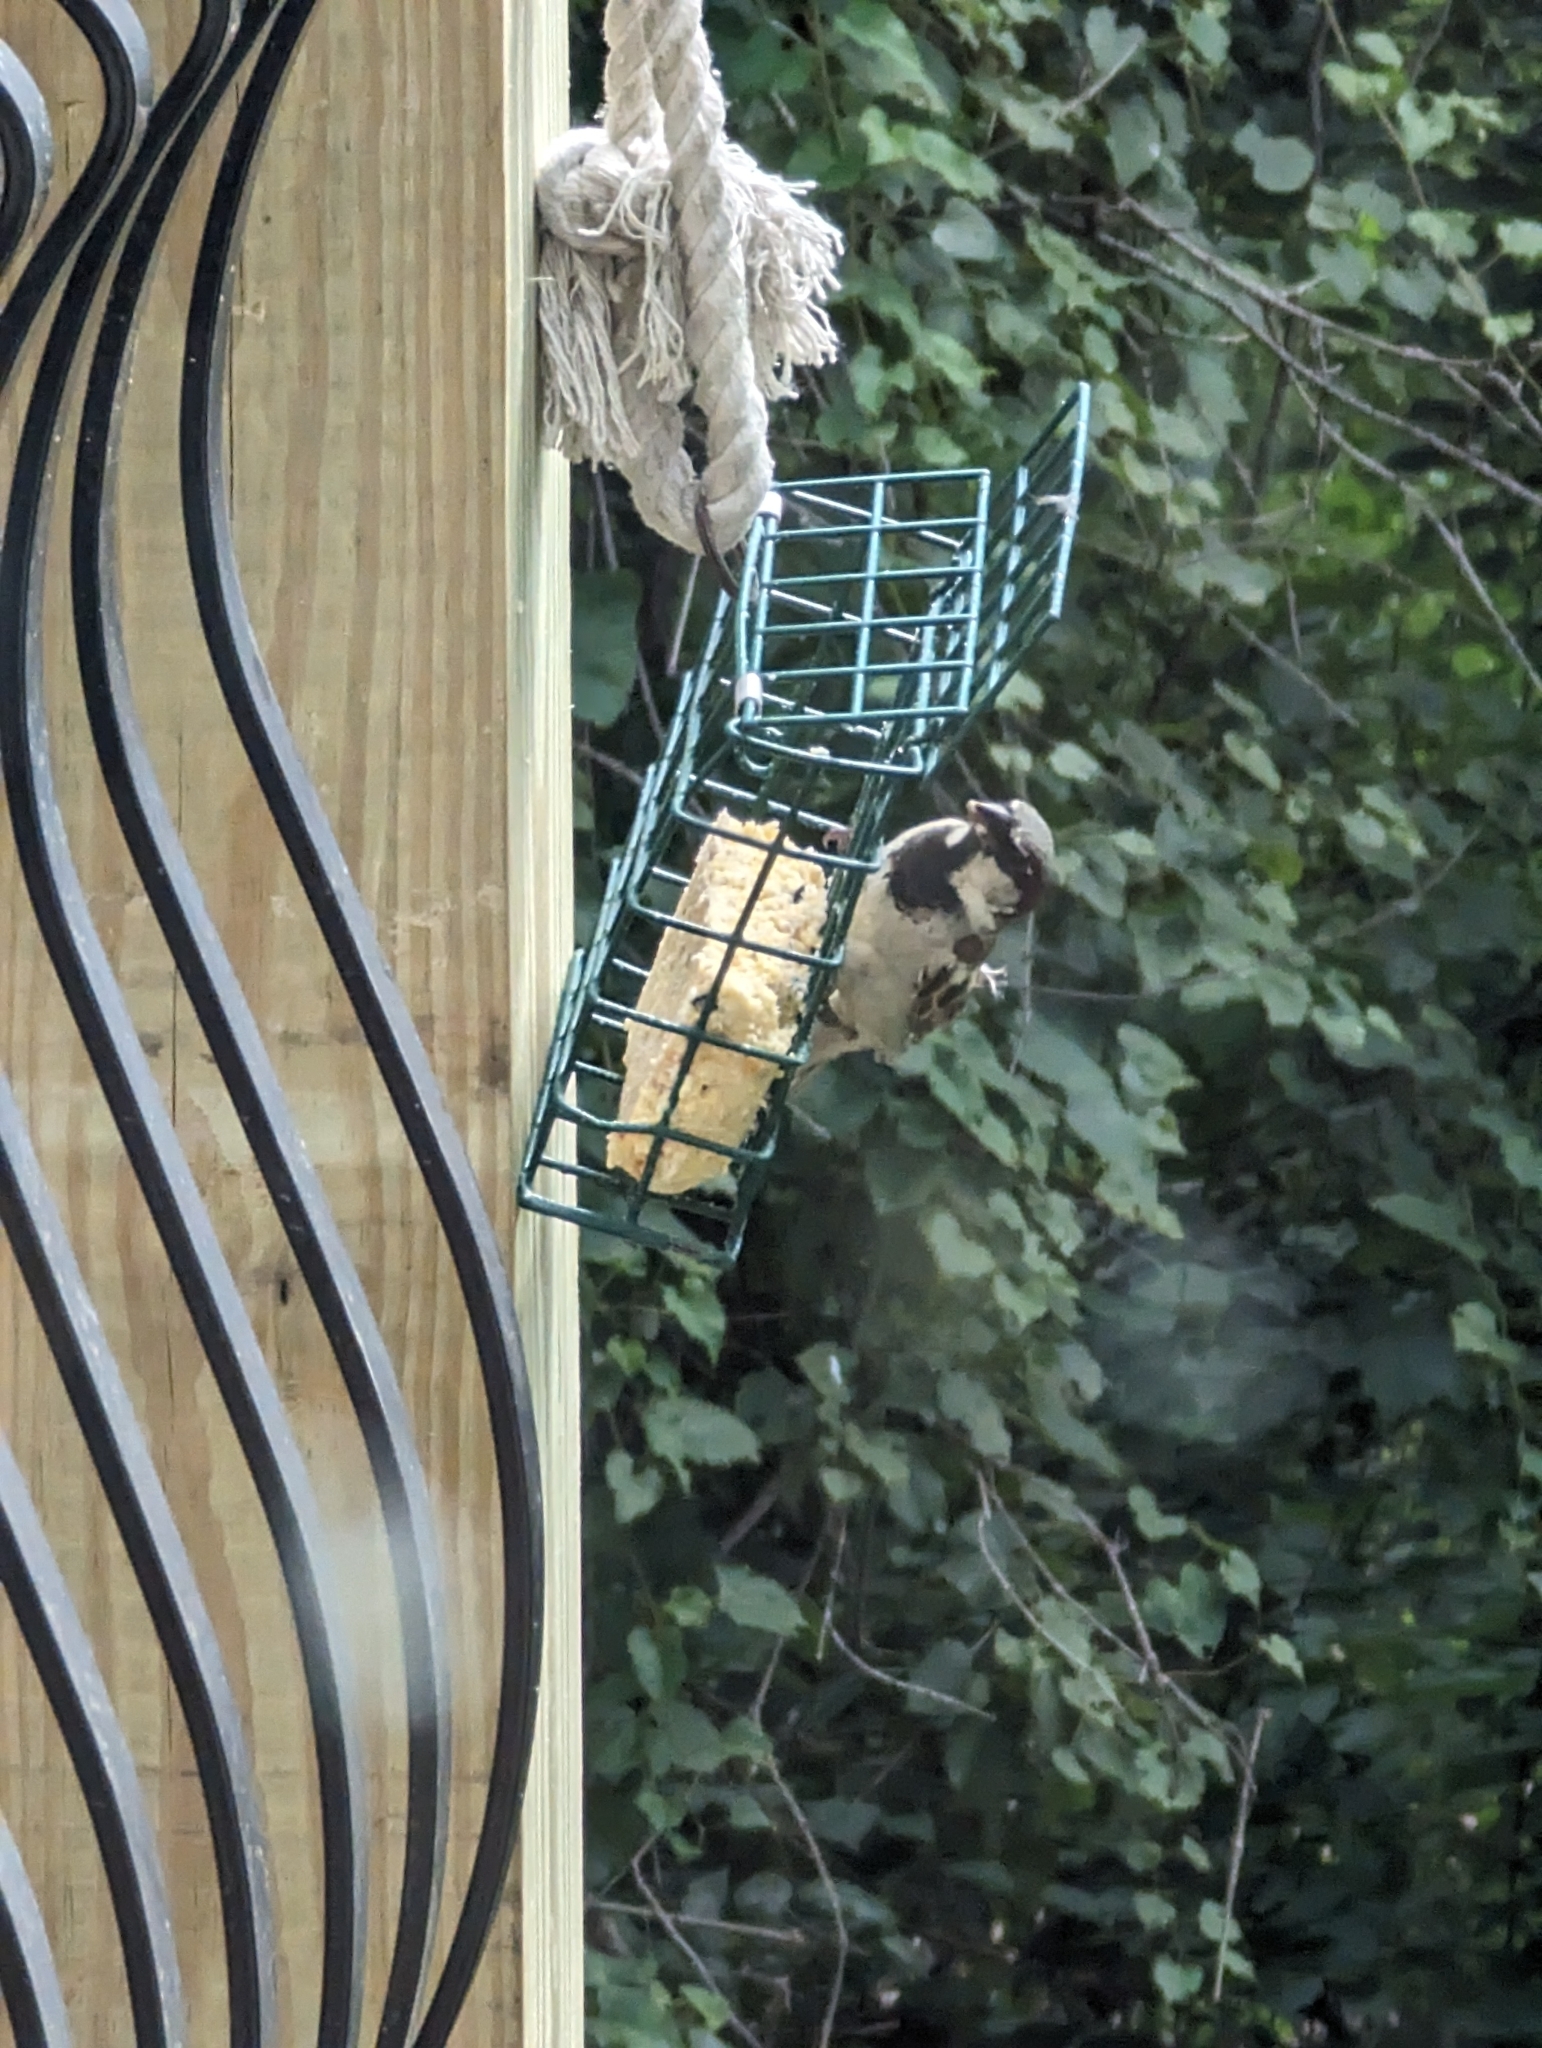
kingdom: Animalia
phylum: Chordata
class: Aves
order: Passeriformes
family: Passeridae
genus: Passer
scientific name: Passer domesticus
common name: House sparrow
